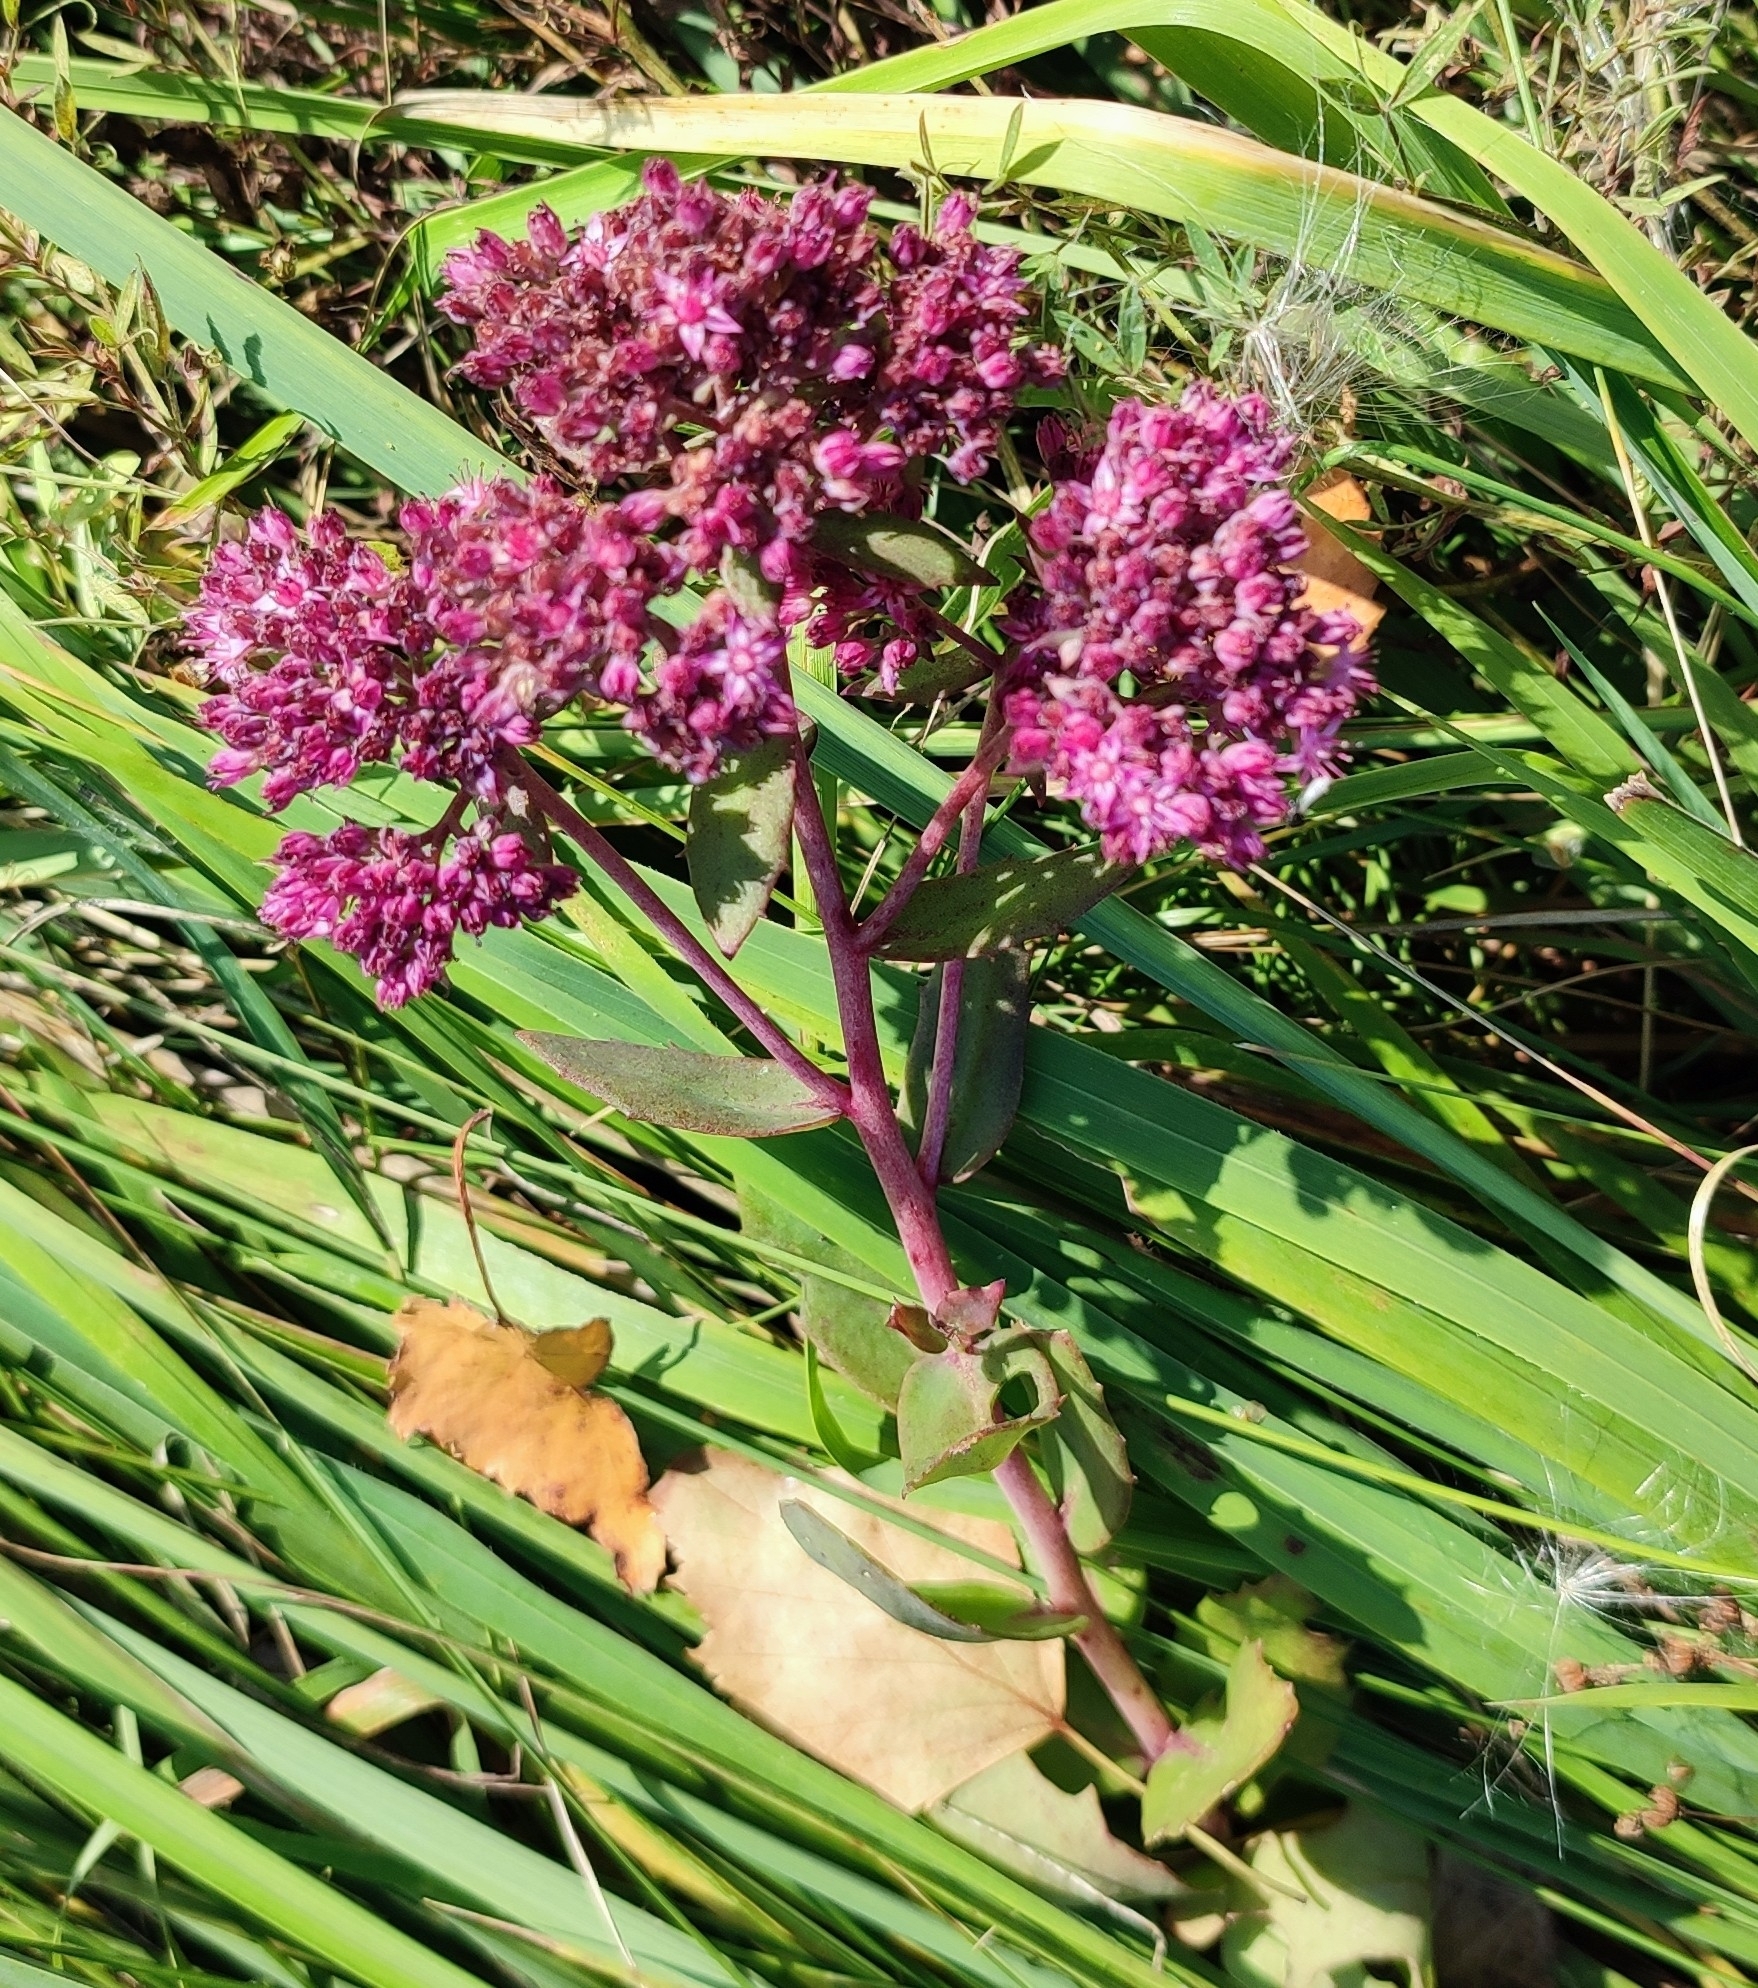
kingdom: Plantae
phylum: Tracheophyta
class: Magnoliopsida
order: Saxifragales
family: Crassulaceae
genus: Hylotelephium
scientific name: Hylotelephium telephium
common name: Live-forever
